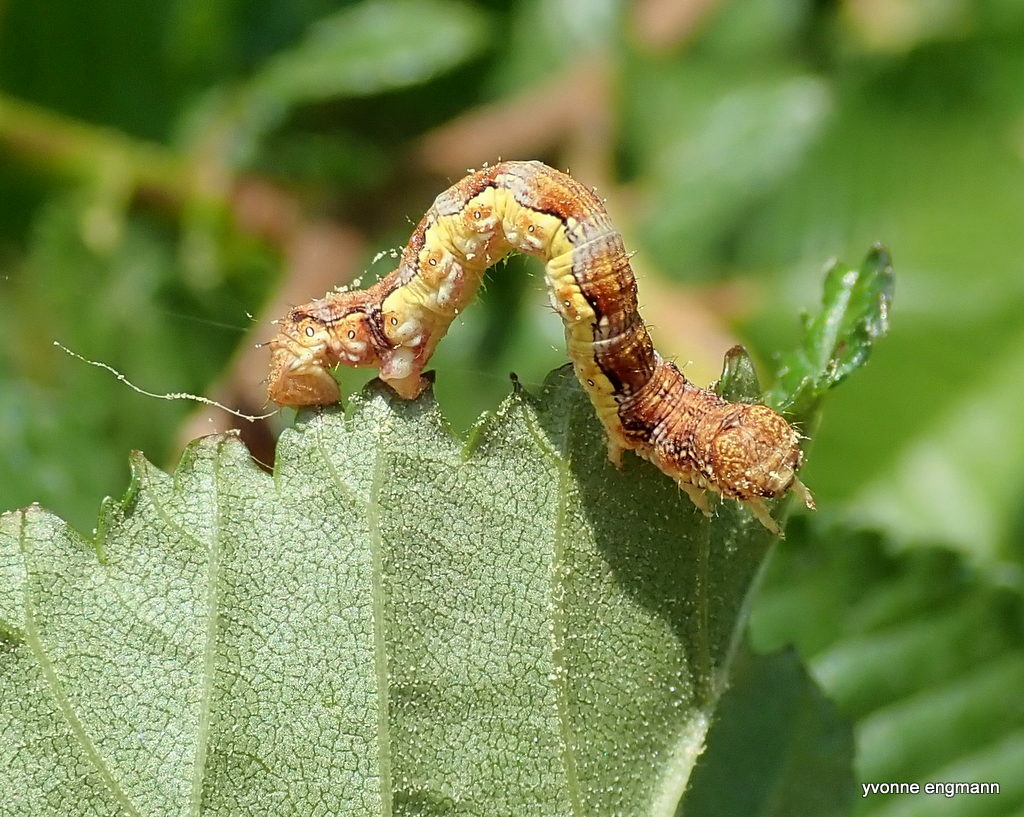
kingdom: Animalia
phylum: Arthropoda
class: Insecta
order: Lepidoptera
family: Geometridae
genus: Erannis
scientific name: Erannis defoliaria
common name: Mottled umber
